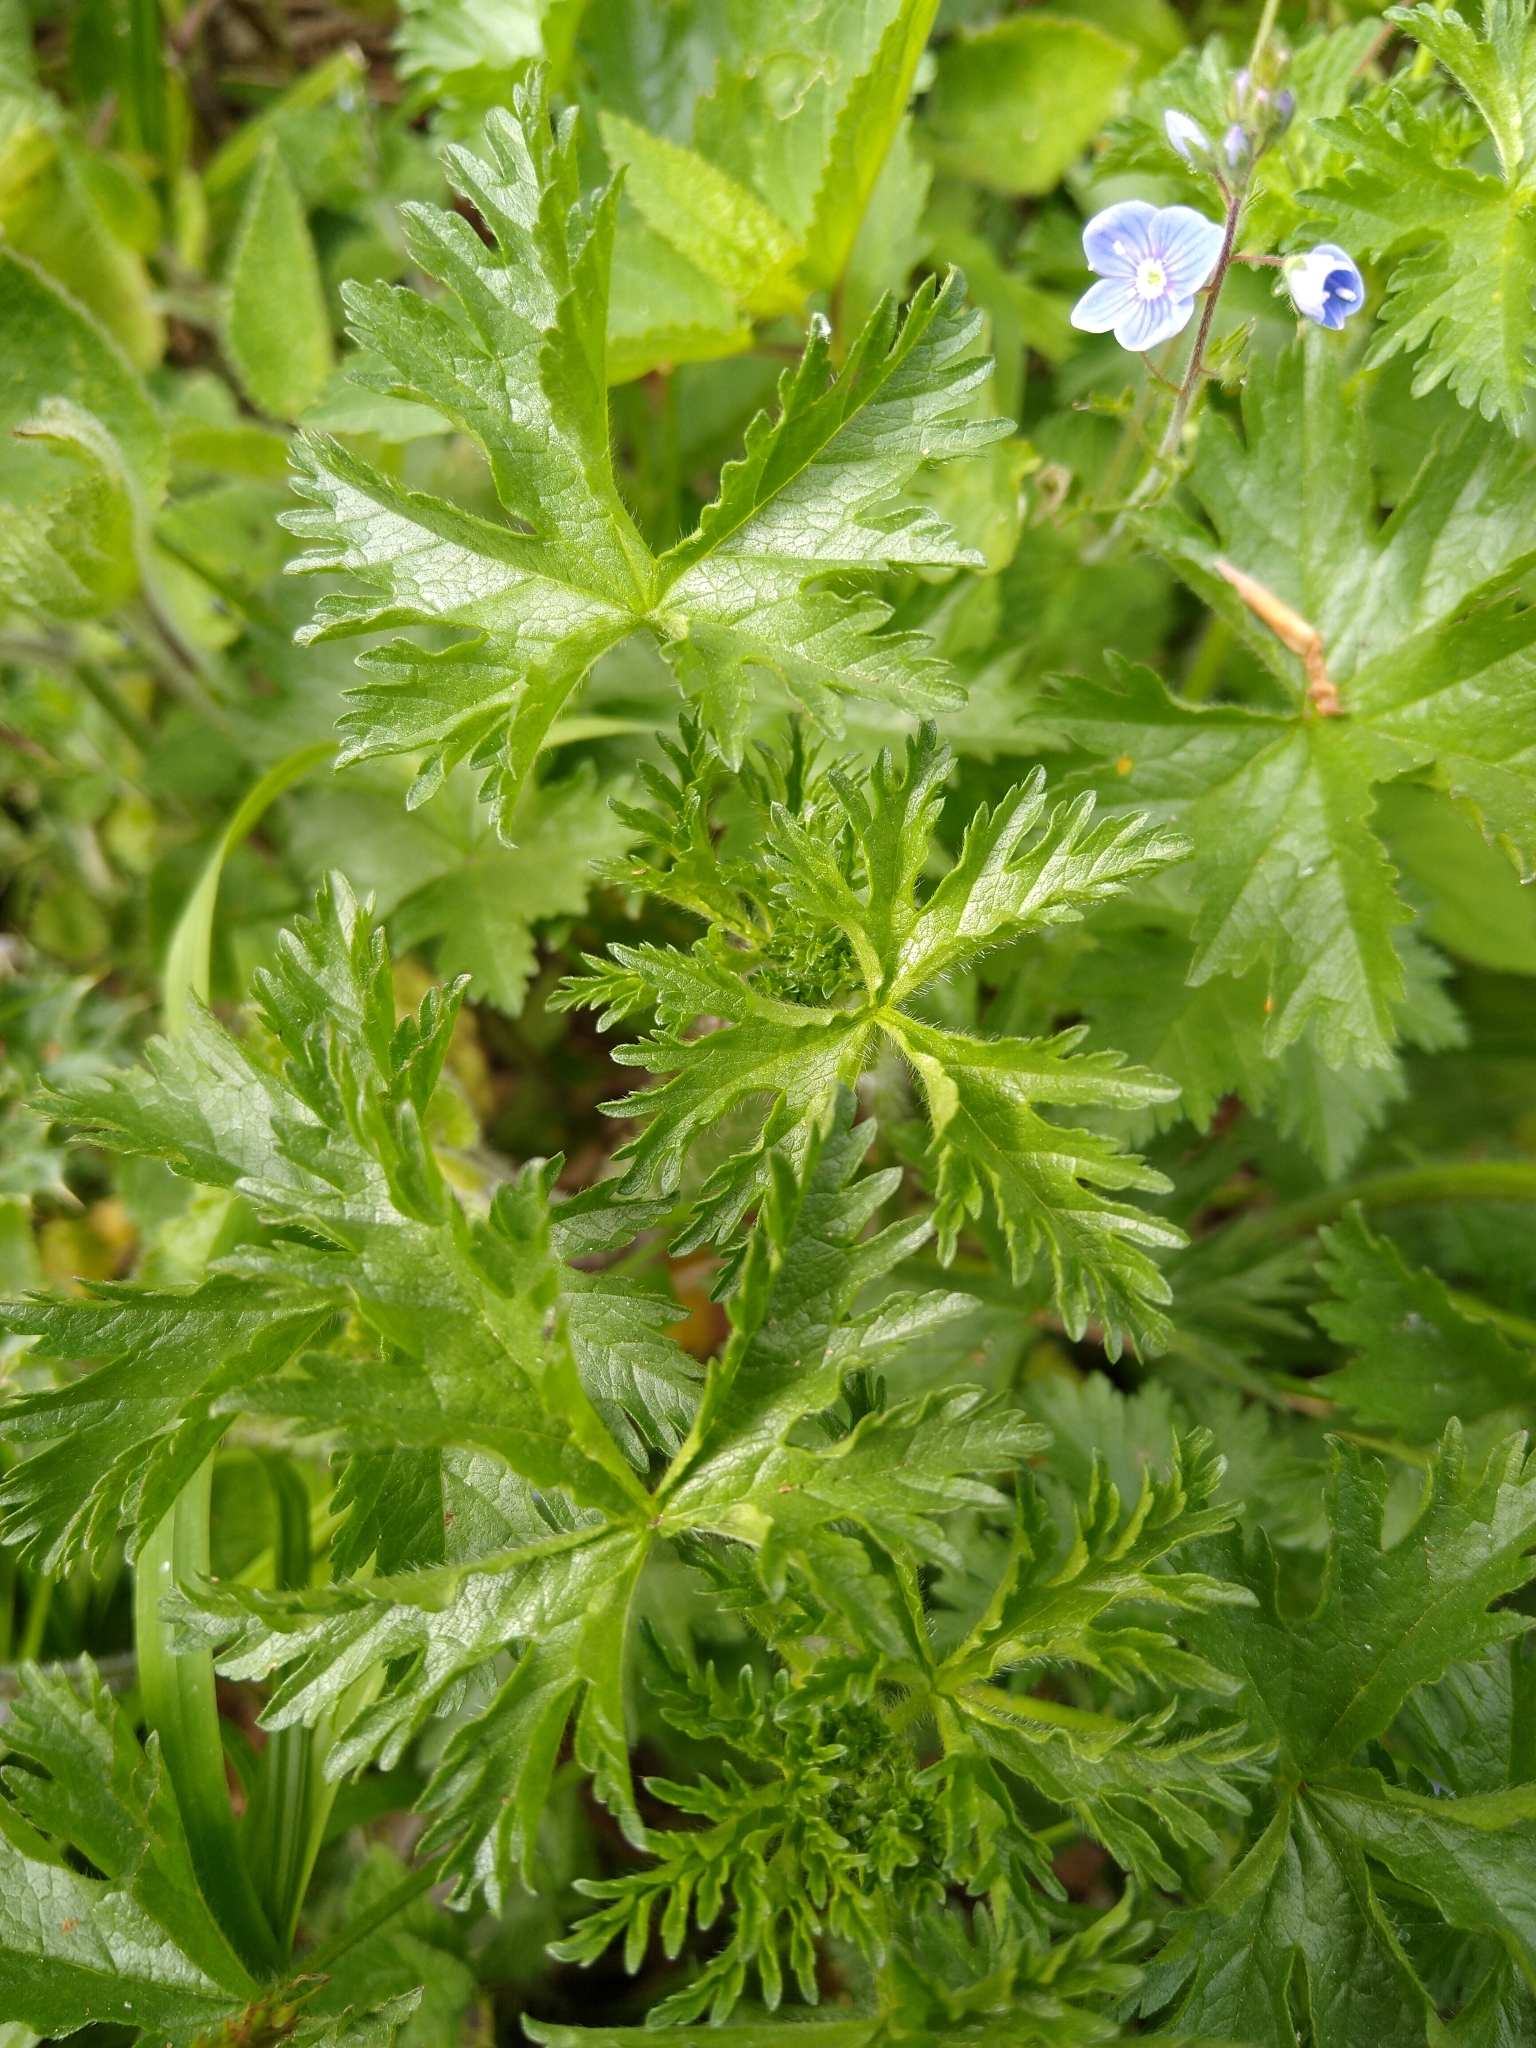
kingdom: Plantae
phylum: Tracheophyta
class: Magnoliopsida
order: Malvales
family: Malvaceae
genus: Malva
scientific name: Malva moschata
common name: Musk mallow
